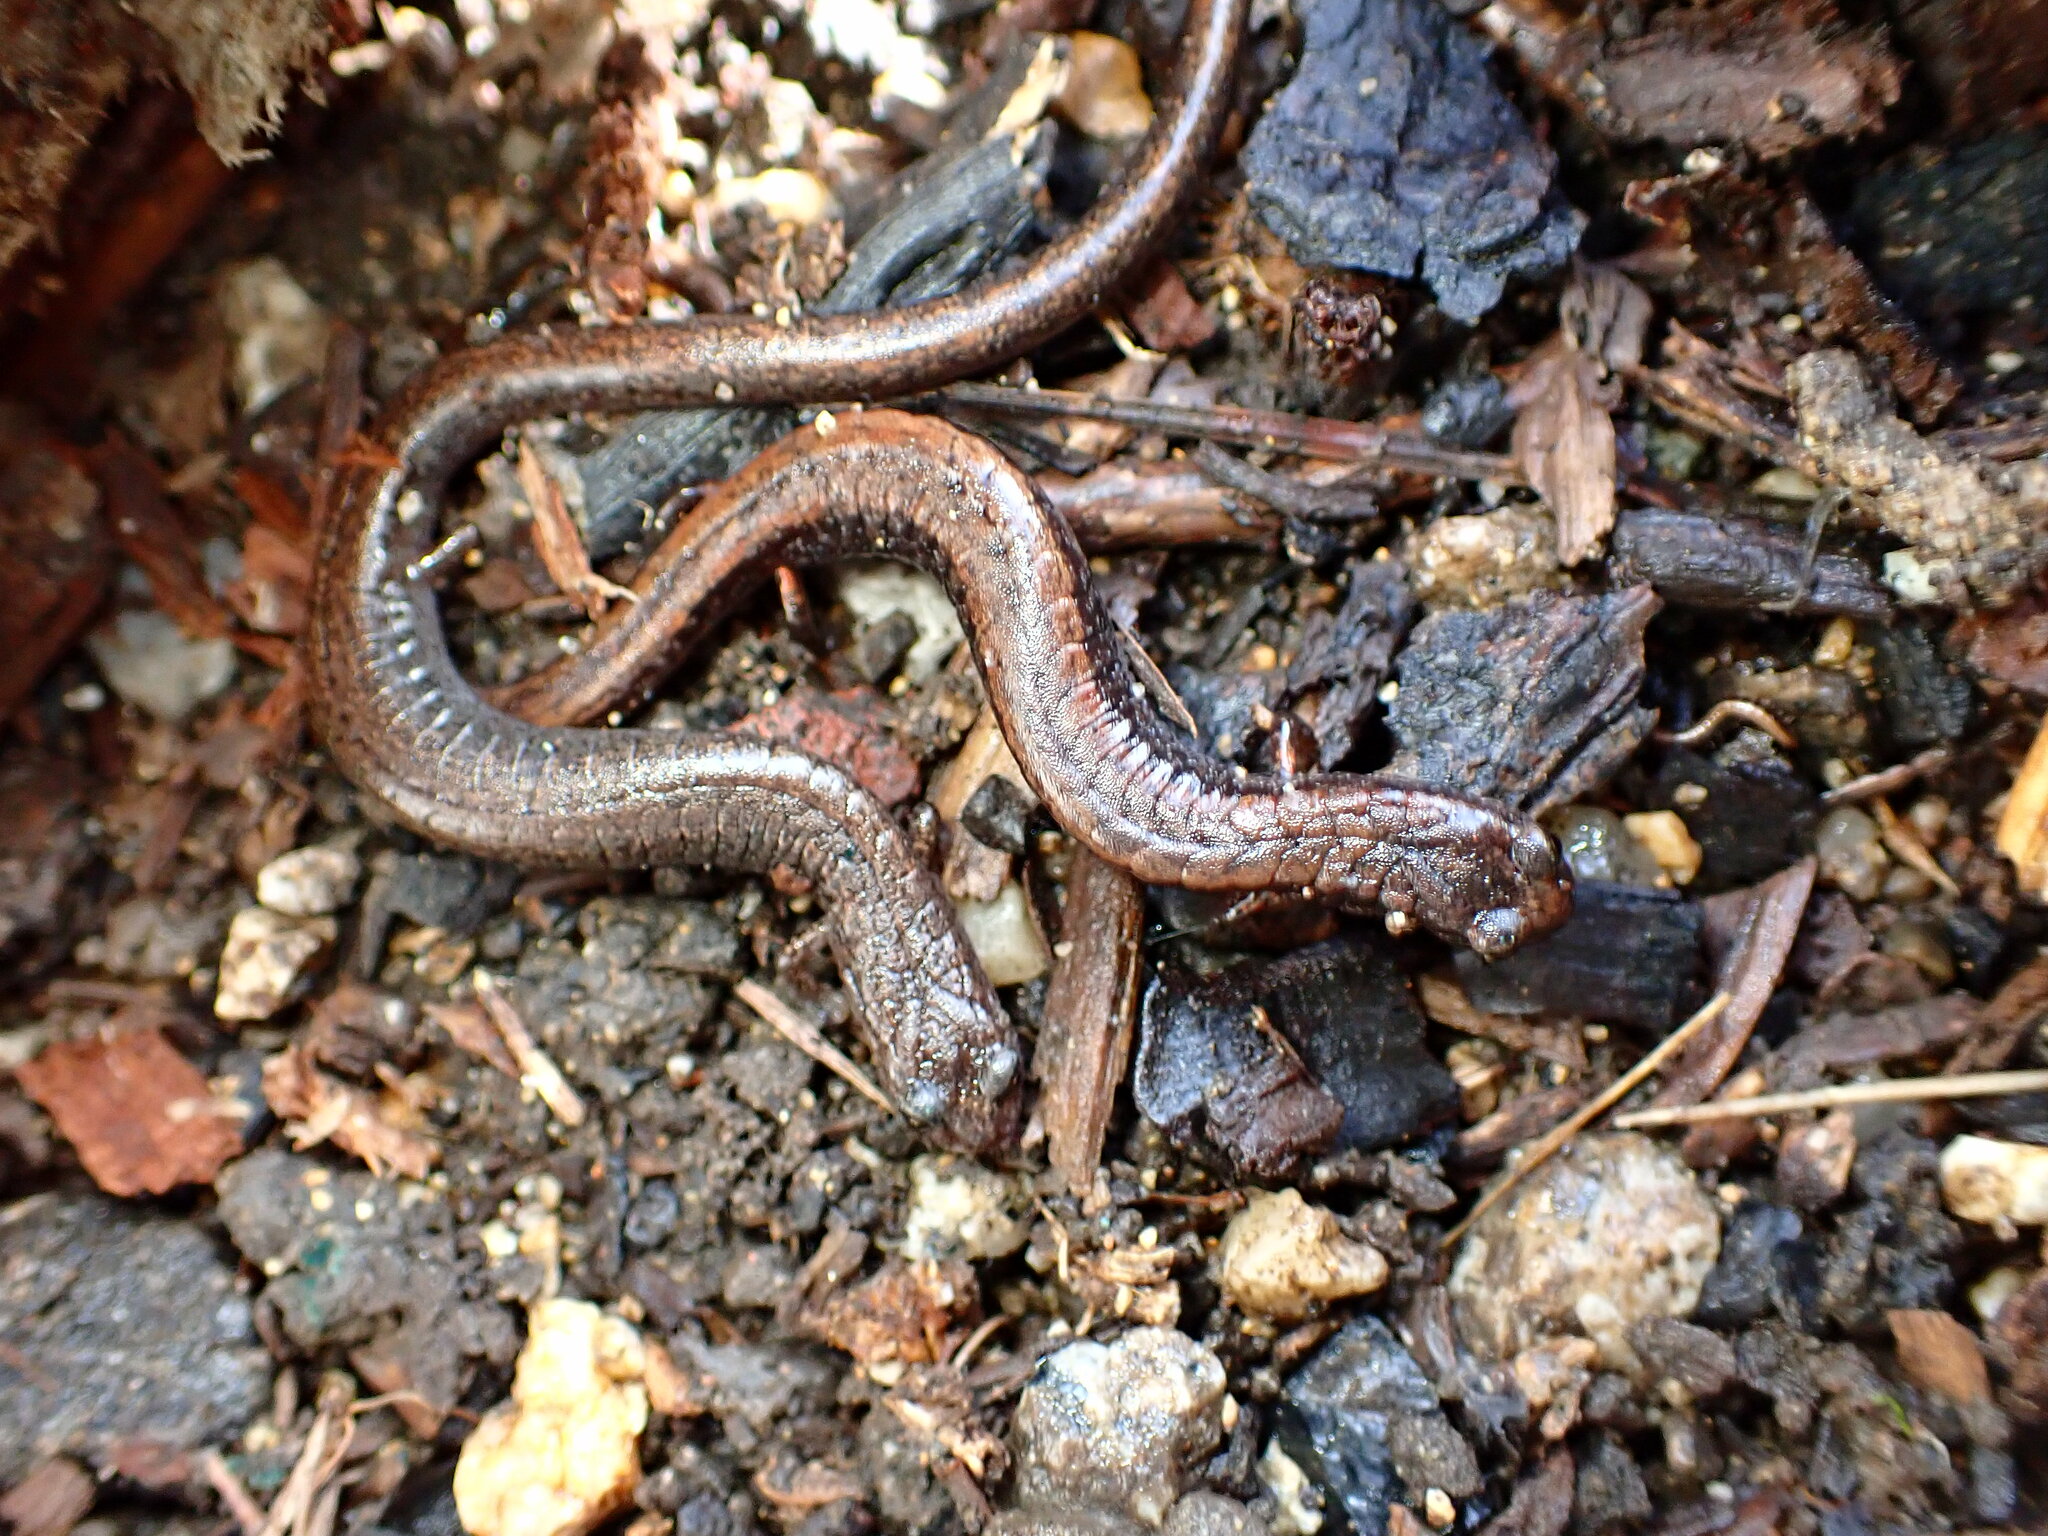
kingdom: Animalia
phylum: Chordata
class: Amphibia
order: Caudata
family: Plethodontidae
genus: Batrachoseps
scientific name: Batrachoseps attenuatus
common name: California slender salamander
